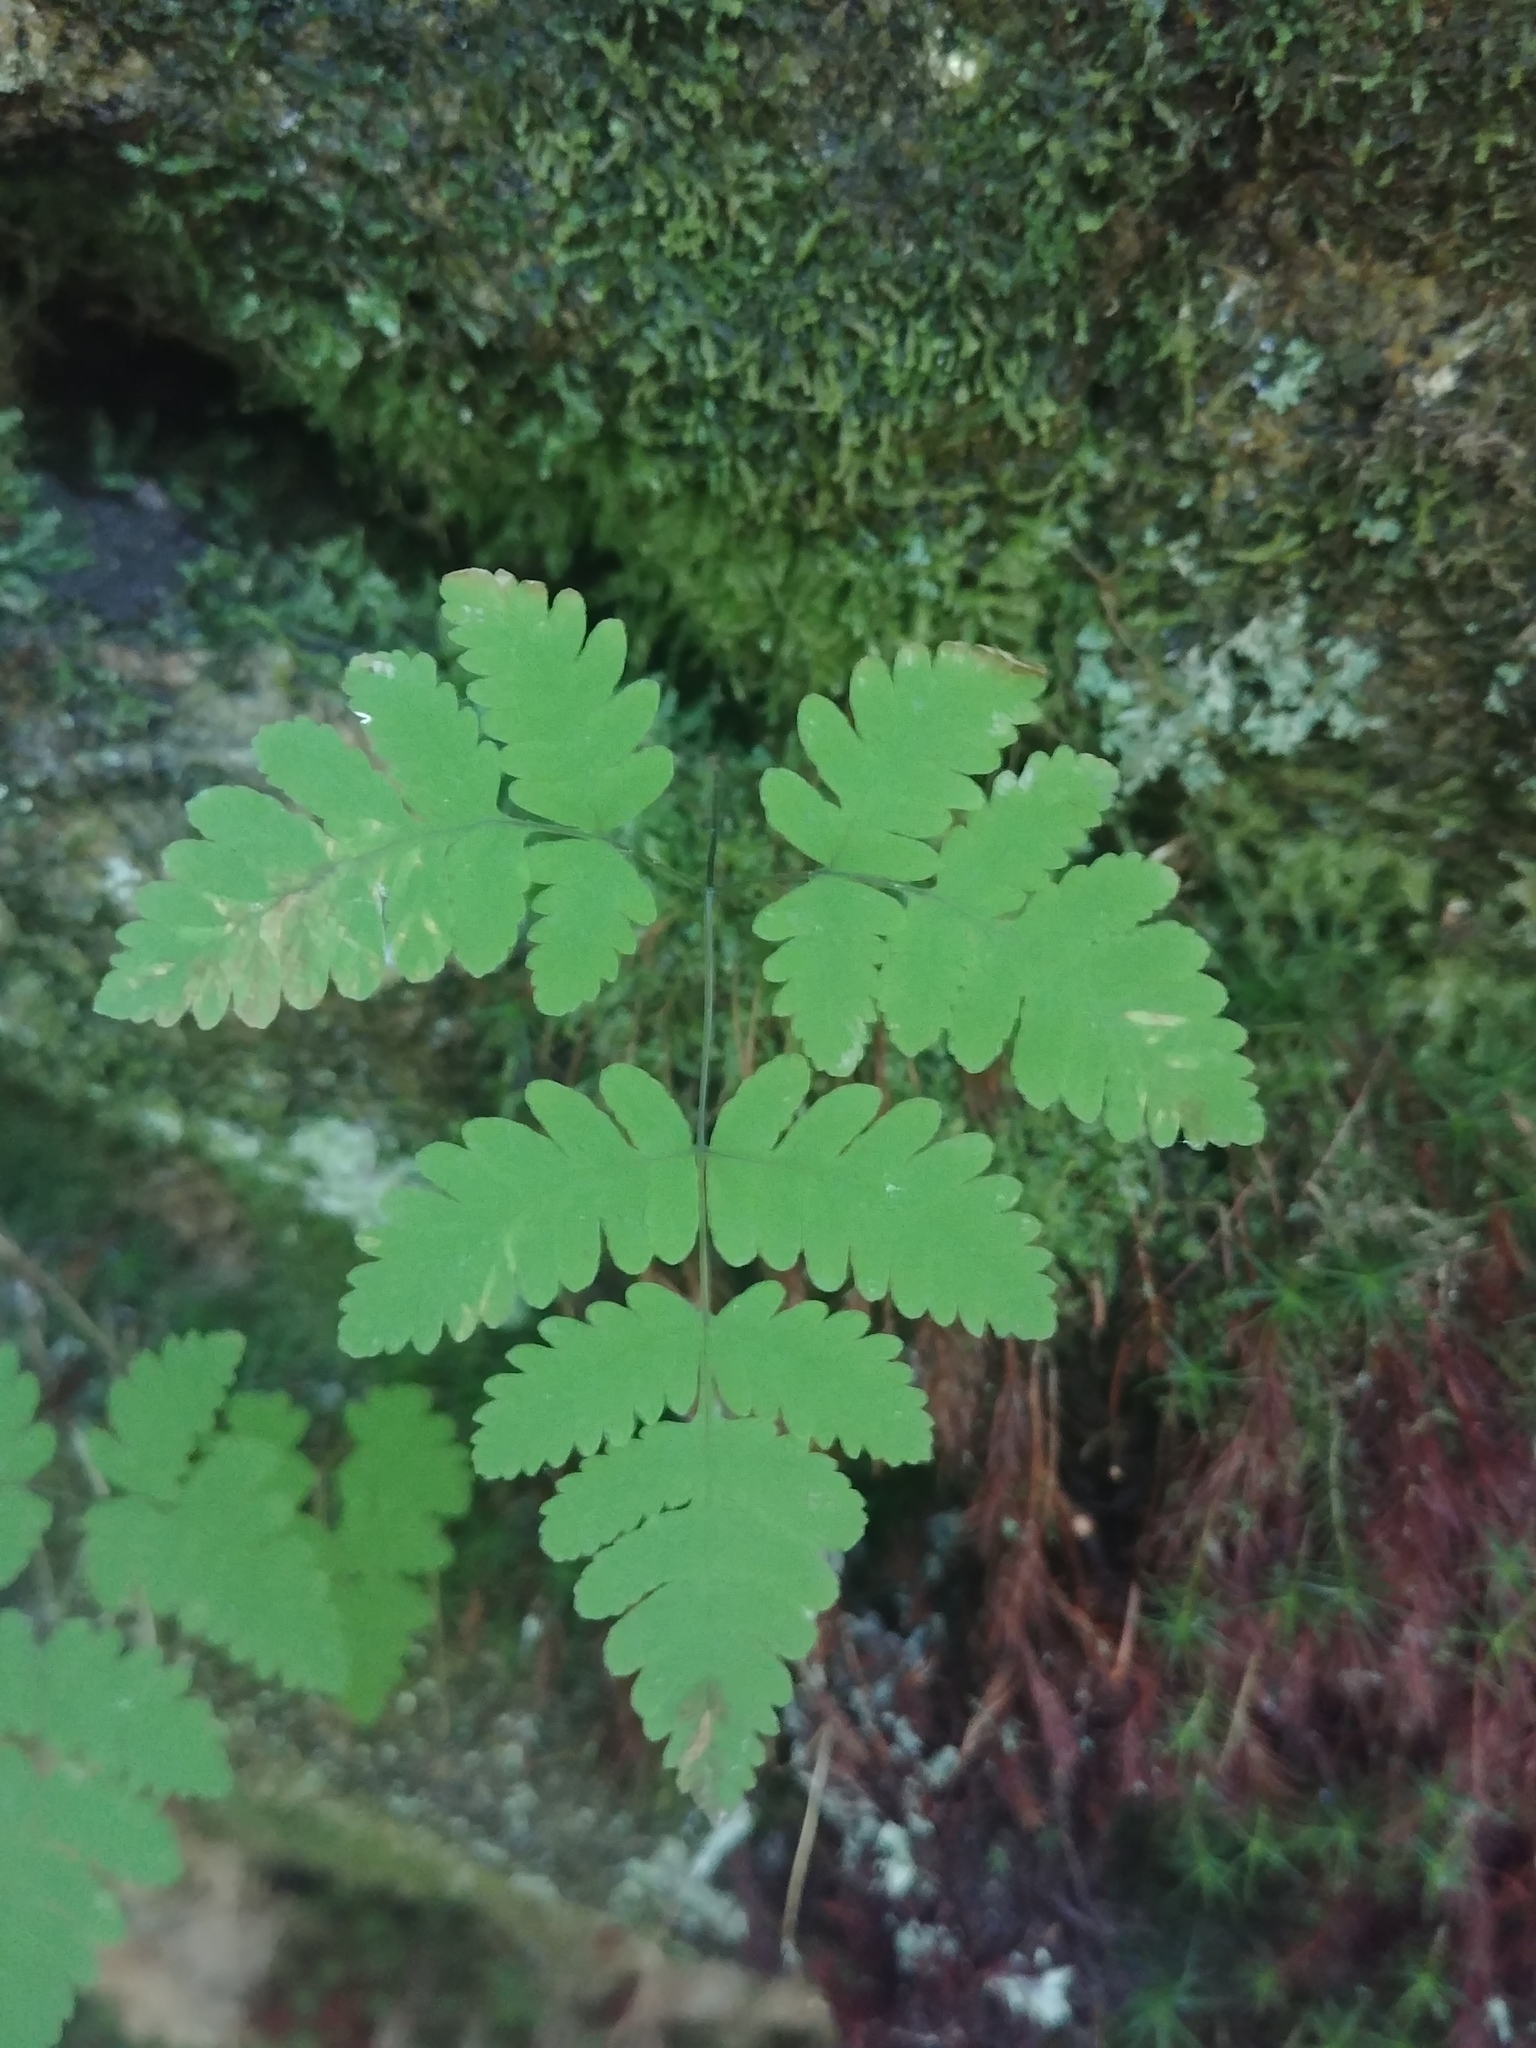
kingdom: Plantae
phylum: Tracheophyta
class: Polypodiopsida
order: Polypodiales
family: Cystopteridaceae
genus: Gymnocarpium
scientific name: Gymnocarpium dryopteris
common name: Oak fern
